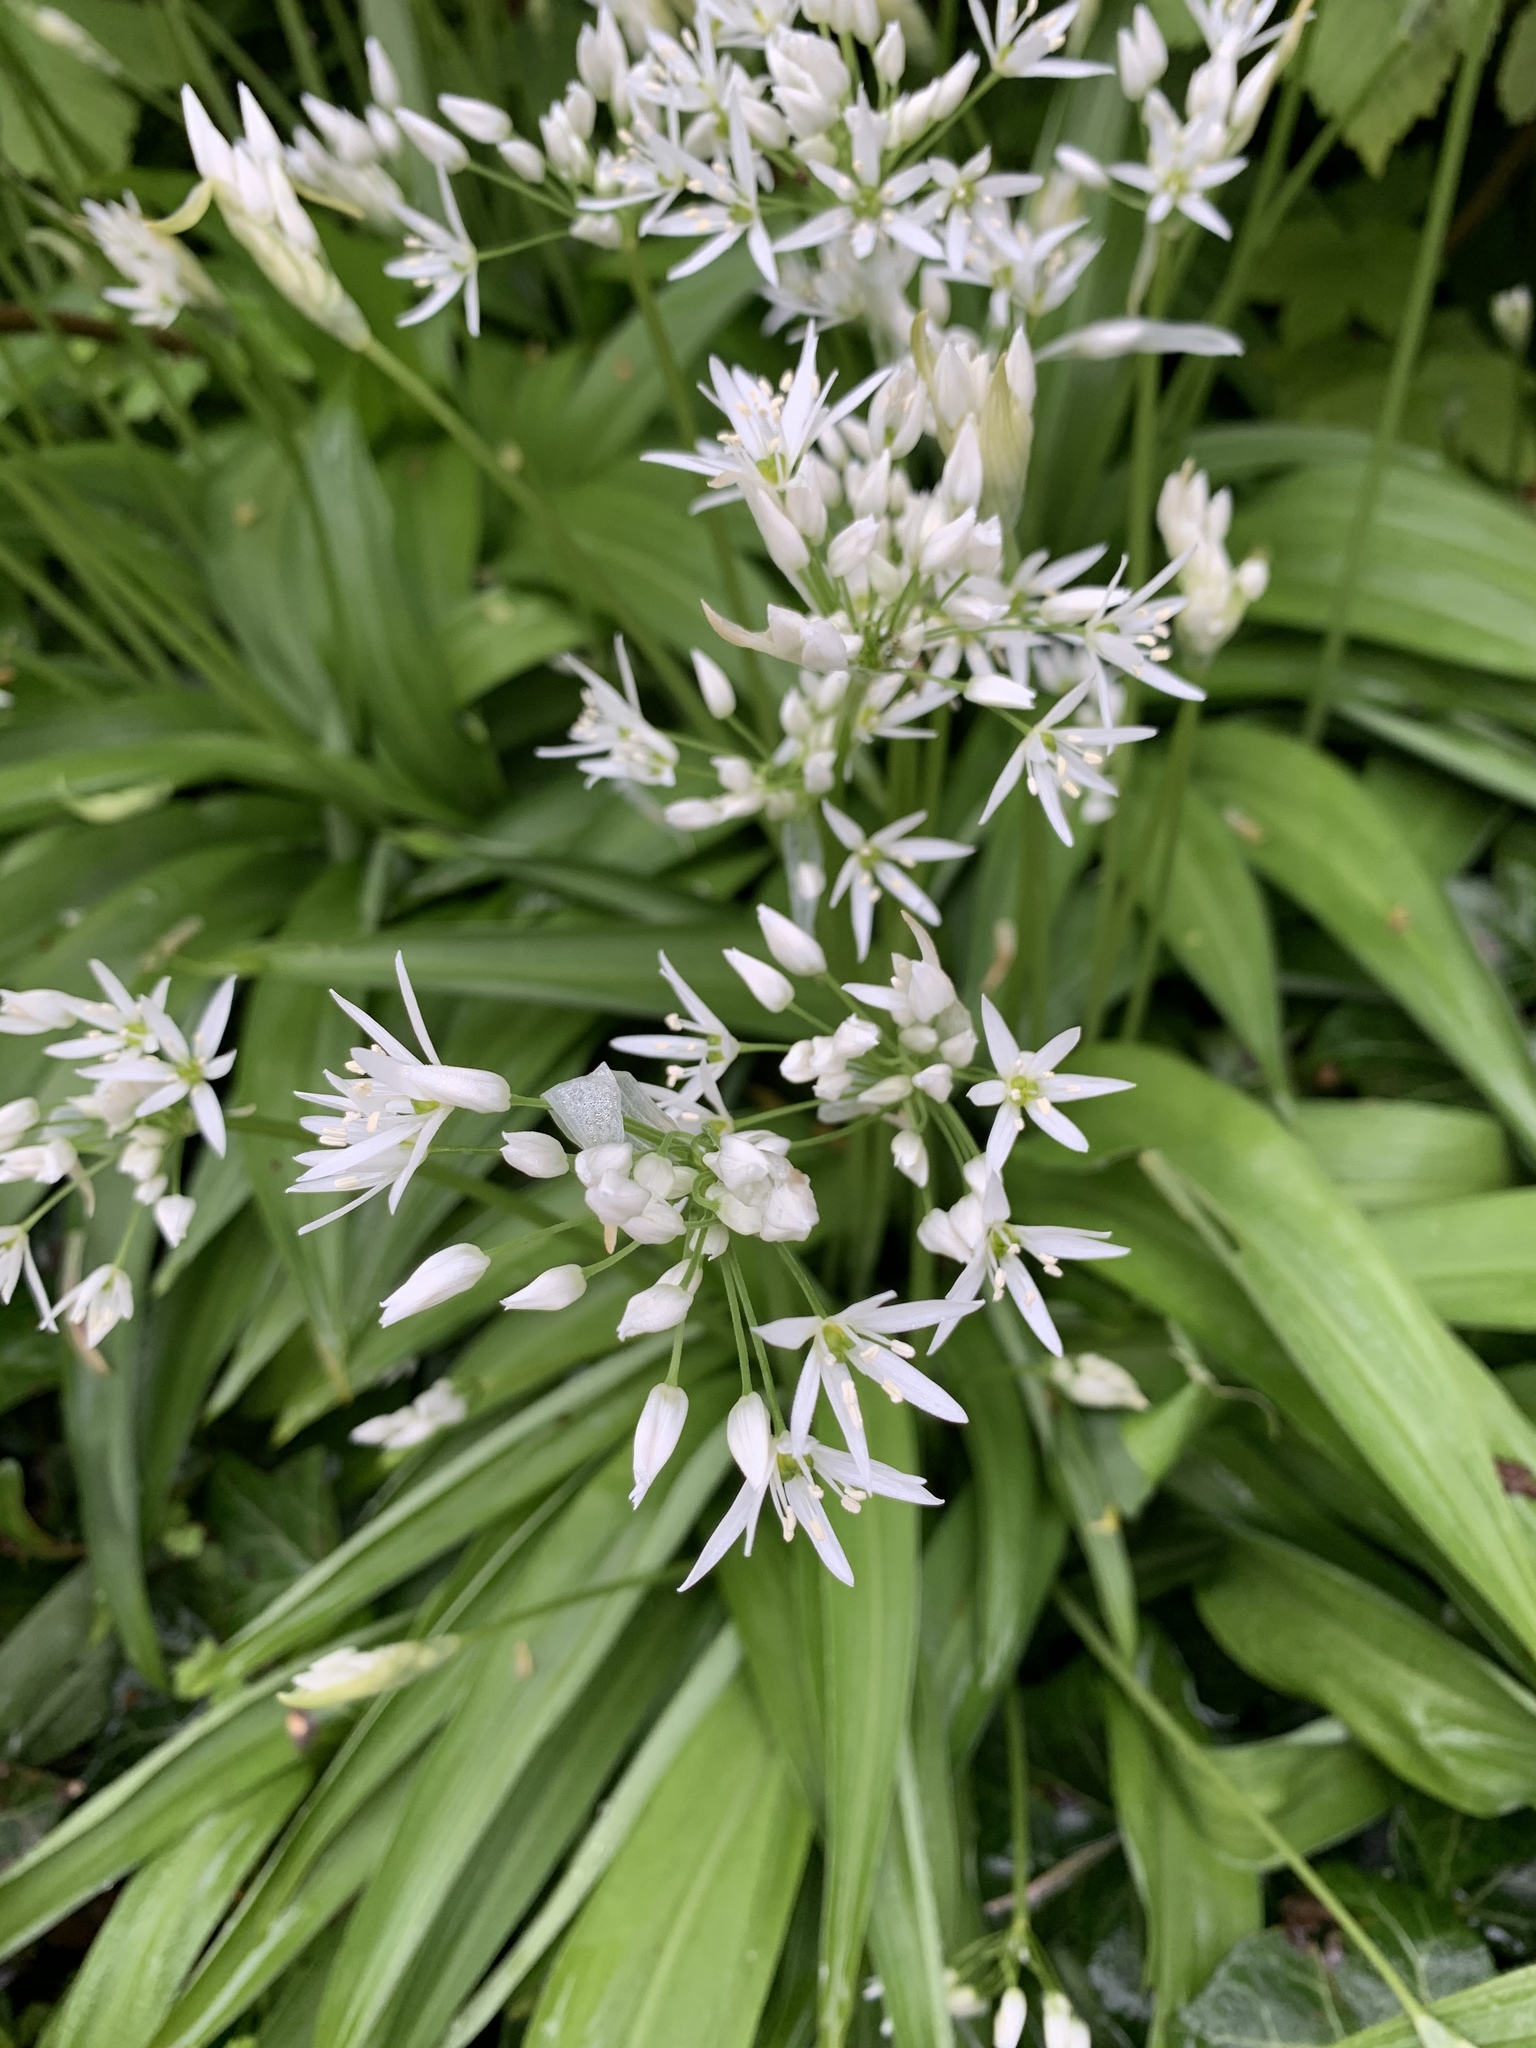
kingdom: Plantae
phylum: Tracheophyta
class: Liliopsida
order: Asparagales
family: Amaryllidaceae
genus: Allium
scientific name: Allium ursinum
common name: Ramsons
